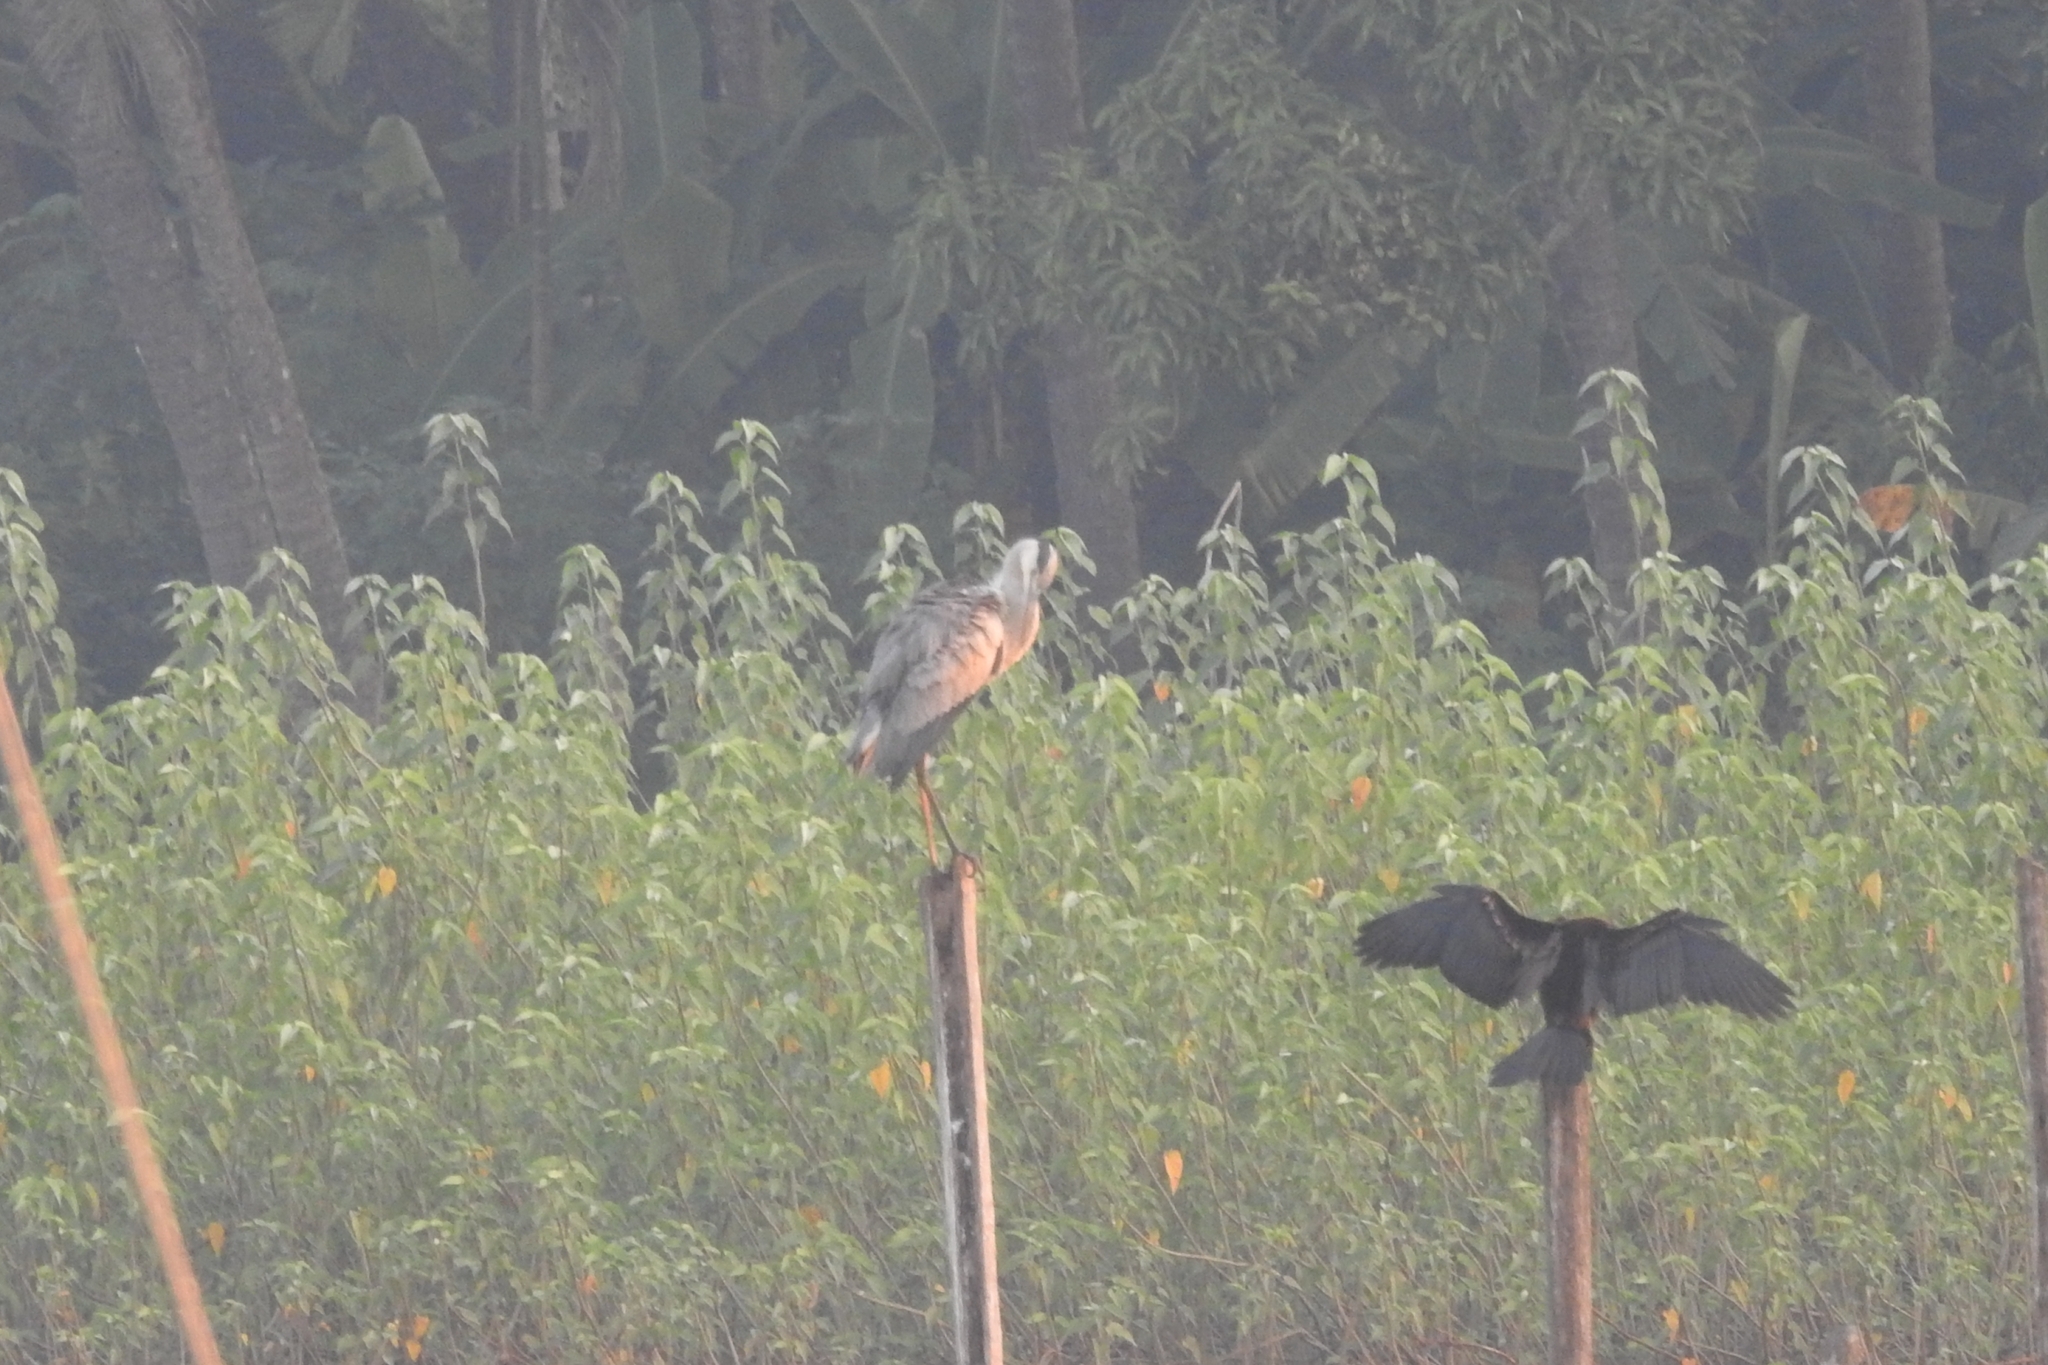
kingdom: Animalia
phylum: Chordata
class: Aves
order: Pelecaniformes
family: Ardeidae
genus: Ardea
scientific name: Ardea cinerea
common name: Grey heron
